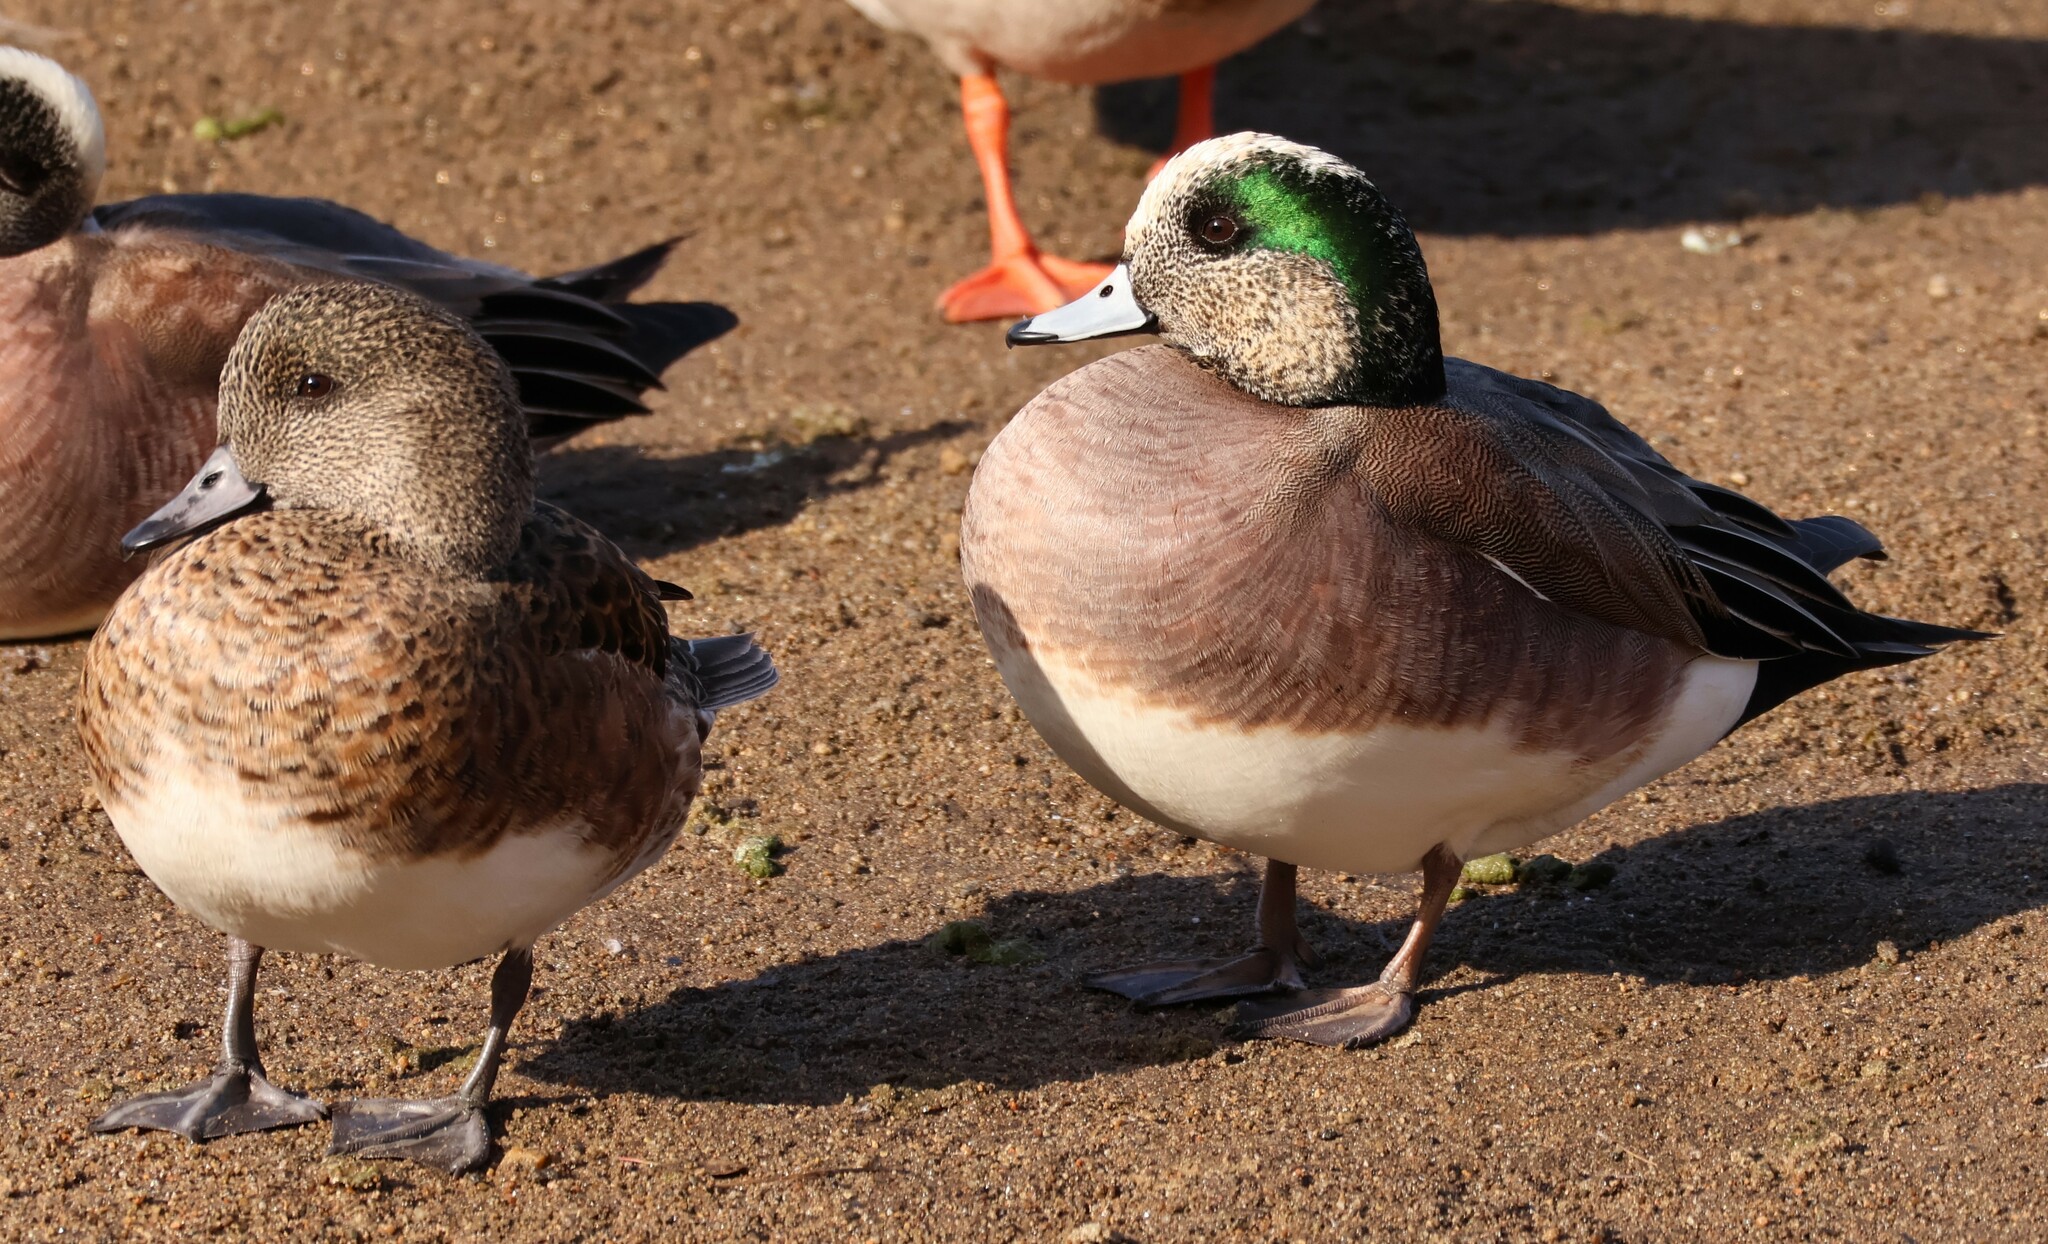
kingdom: Animalia
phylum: Chordata
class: Aves
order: Anseriformes
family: Anatidae
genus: Mareca
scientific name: Mareca americana
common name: American wigeon
